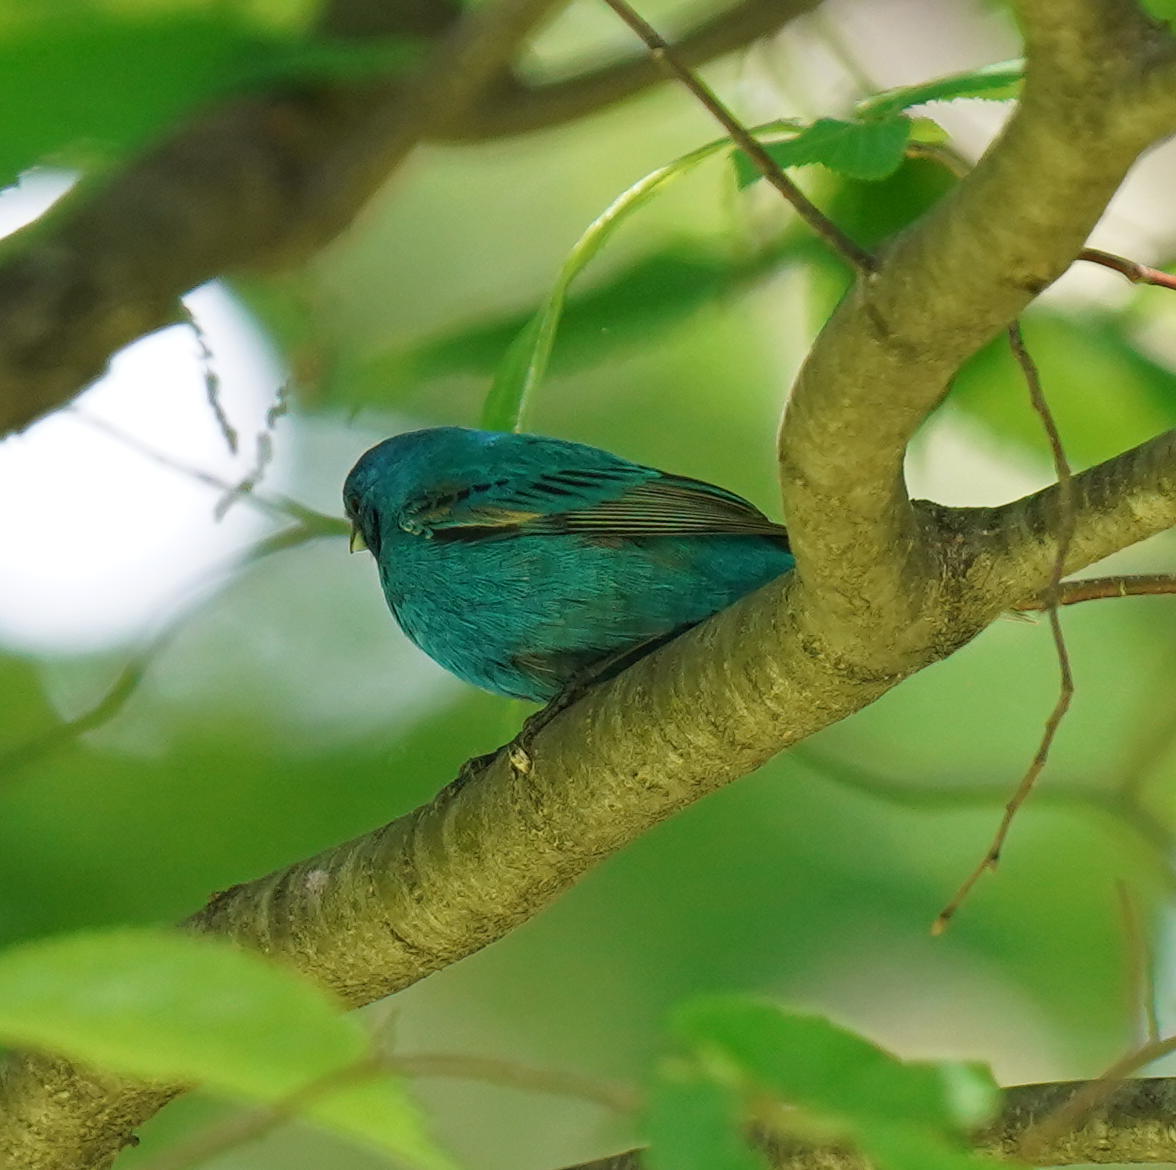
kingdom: Animalia
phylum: Chordata
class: Aves
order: Passeriformes
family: Cardinalidae
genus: Passerina
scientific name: Passerina cyanea
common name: Indigo bunting
